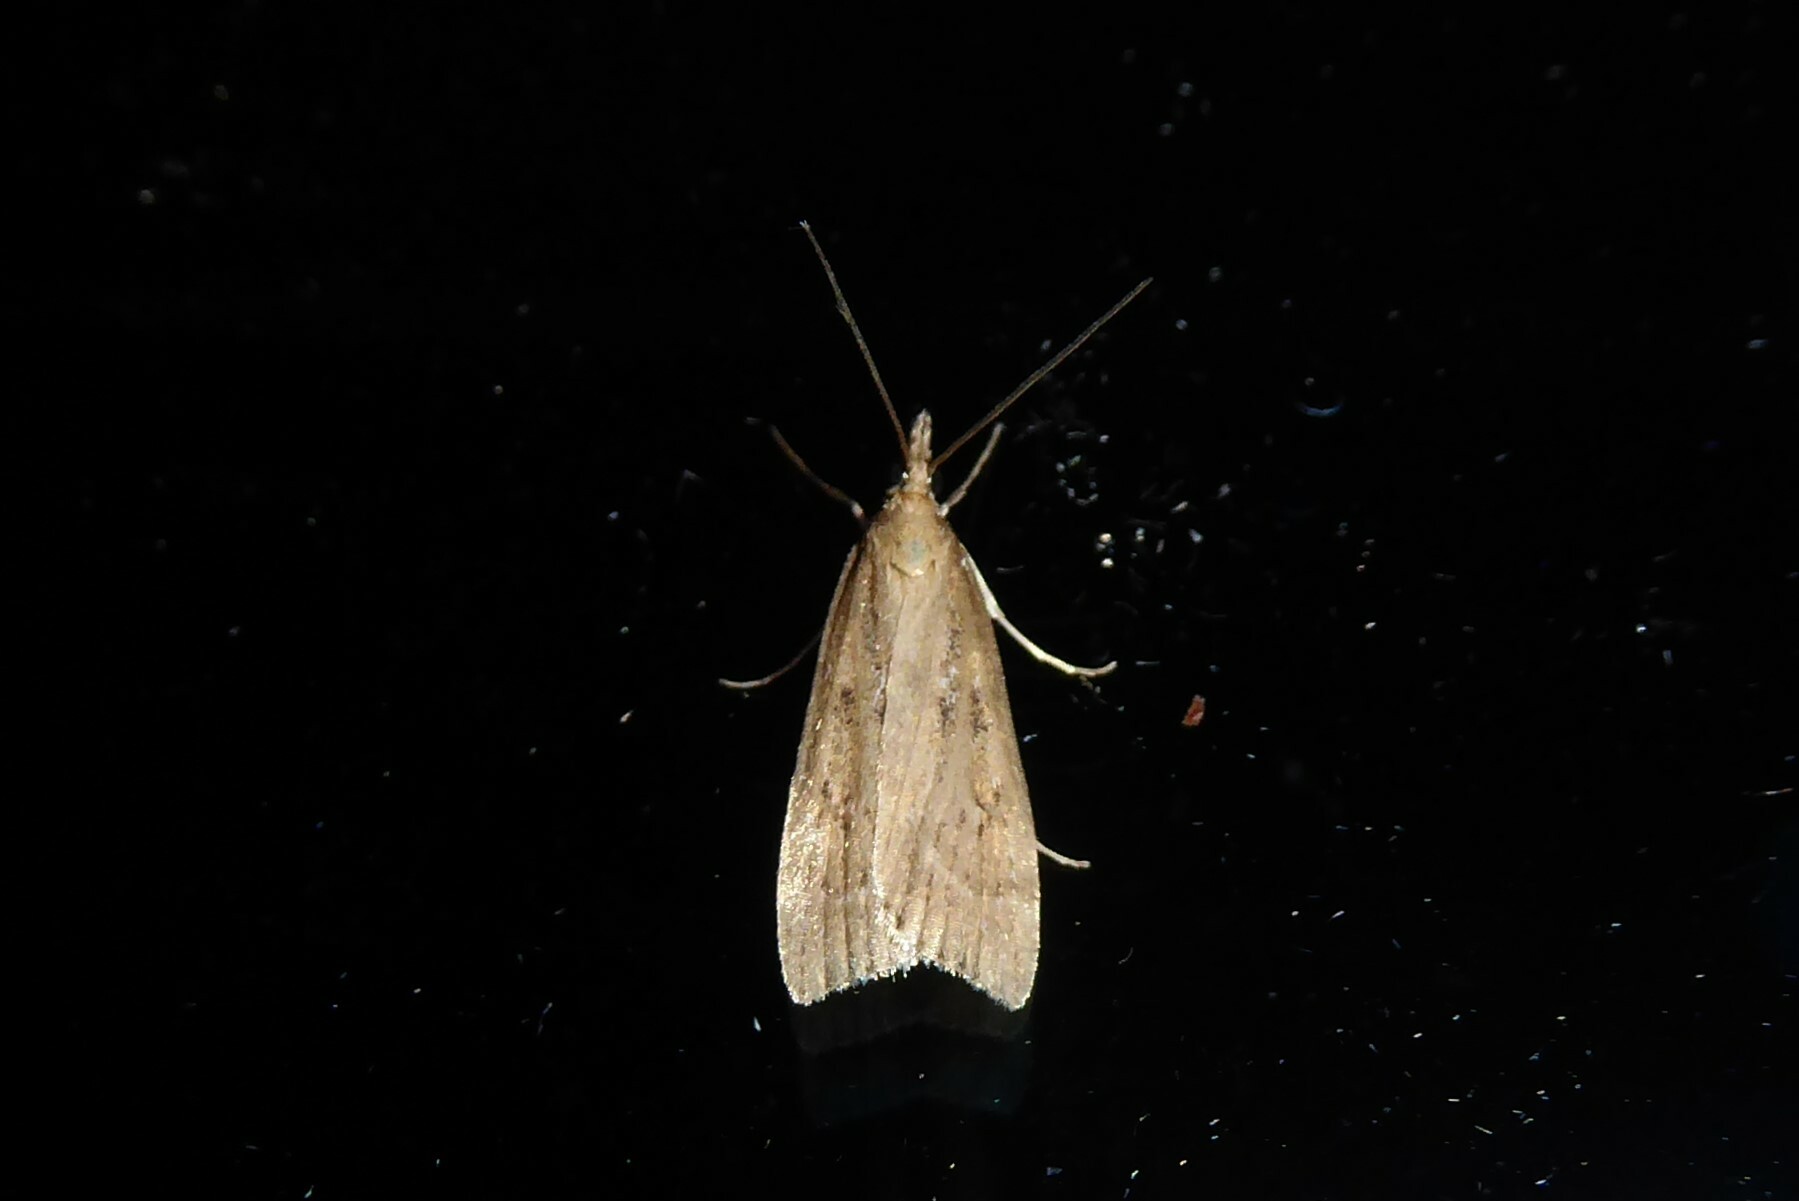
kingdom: Animalia
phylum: Arthropoda
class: Insecta
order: Lepidoptera
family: Crambidae
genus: Eudonia
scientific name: Eudonia octophora
